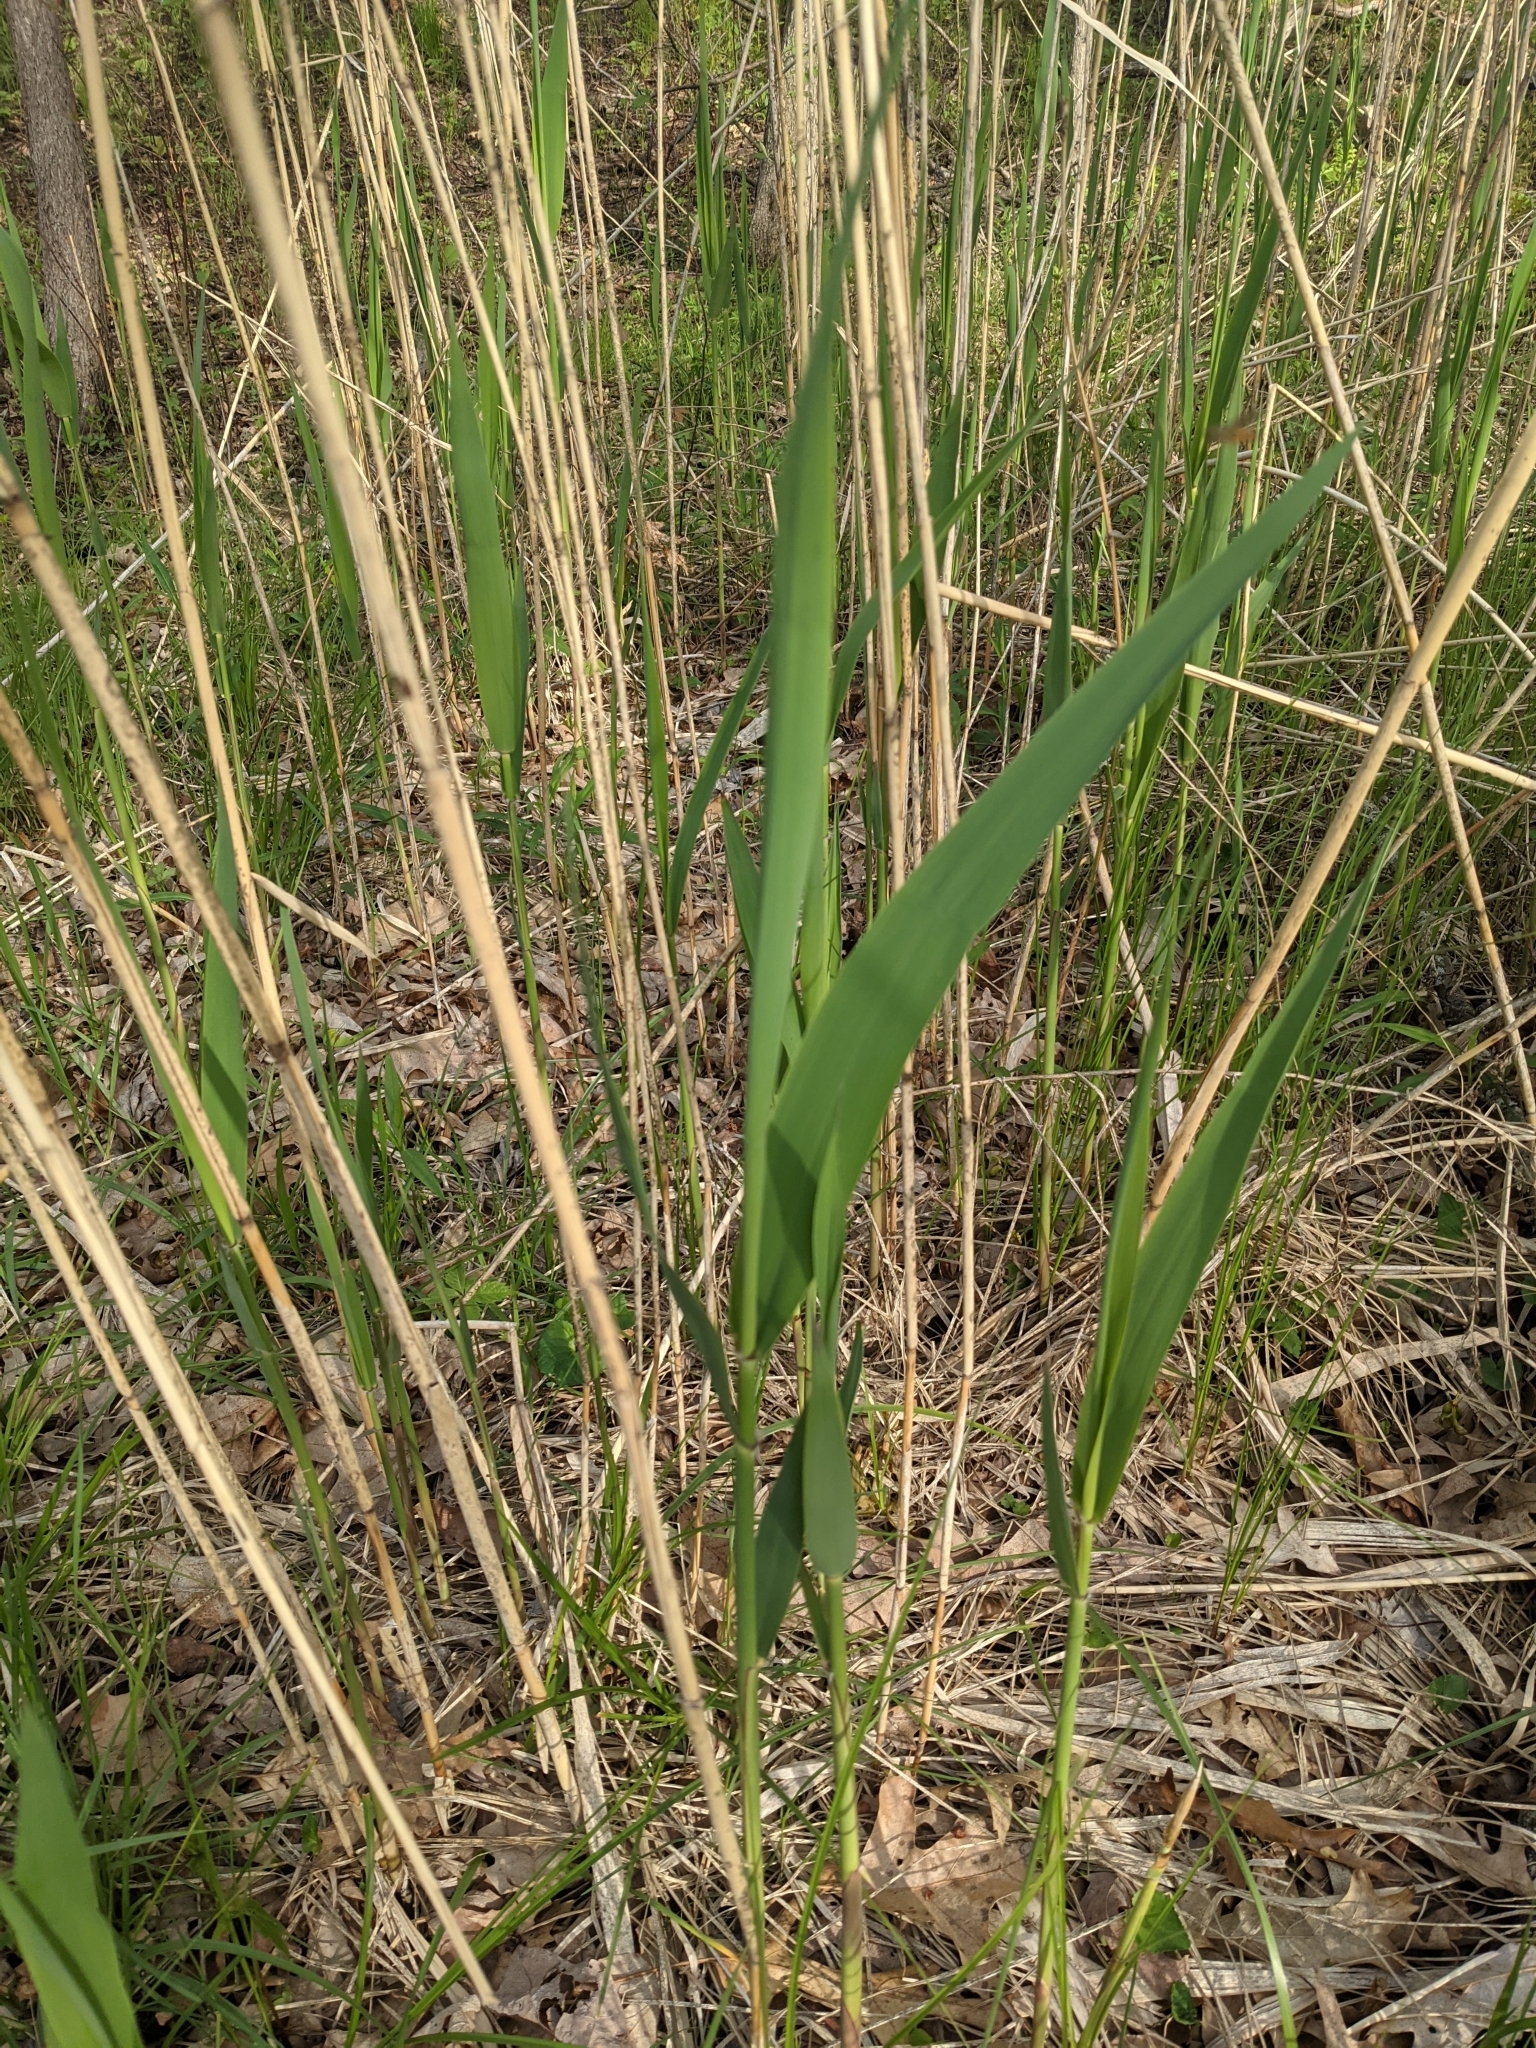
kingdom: Plantae
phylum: Tracheophyta
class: Liliopsida
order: Poales
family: Poaceae
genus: Phragmites
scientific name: Phragmites australis
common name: Common reed
